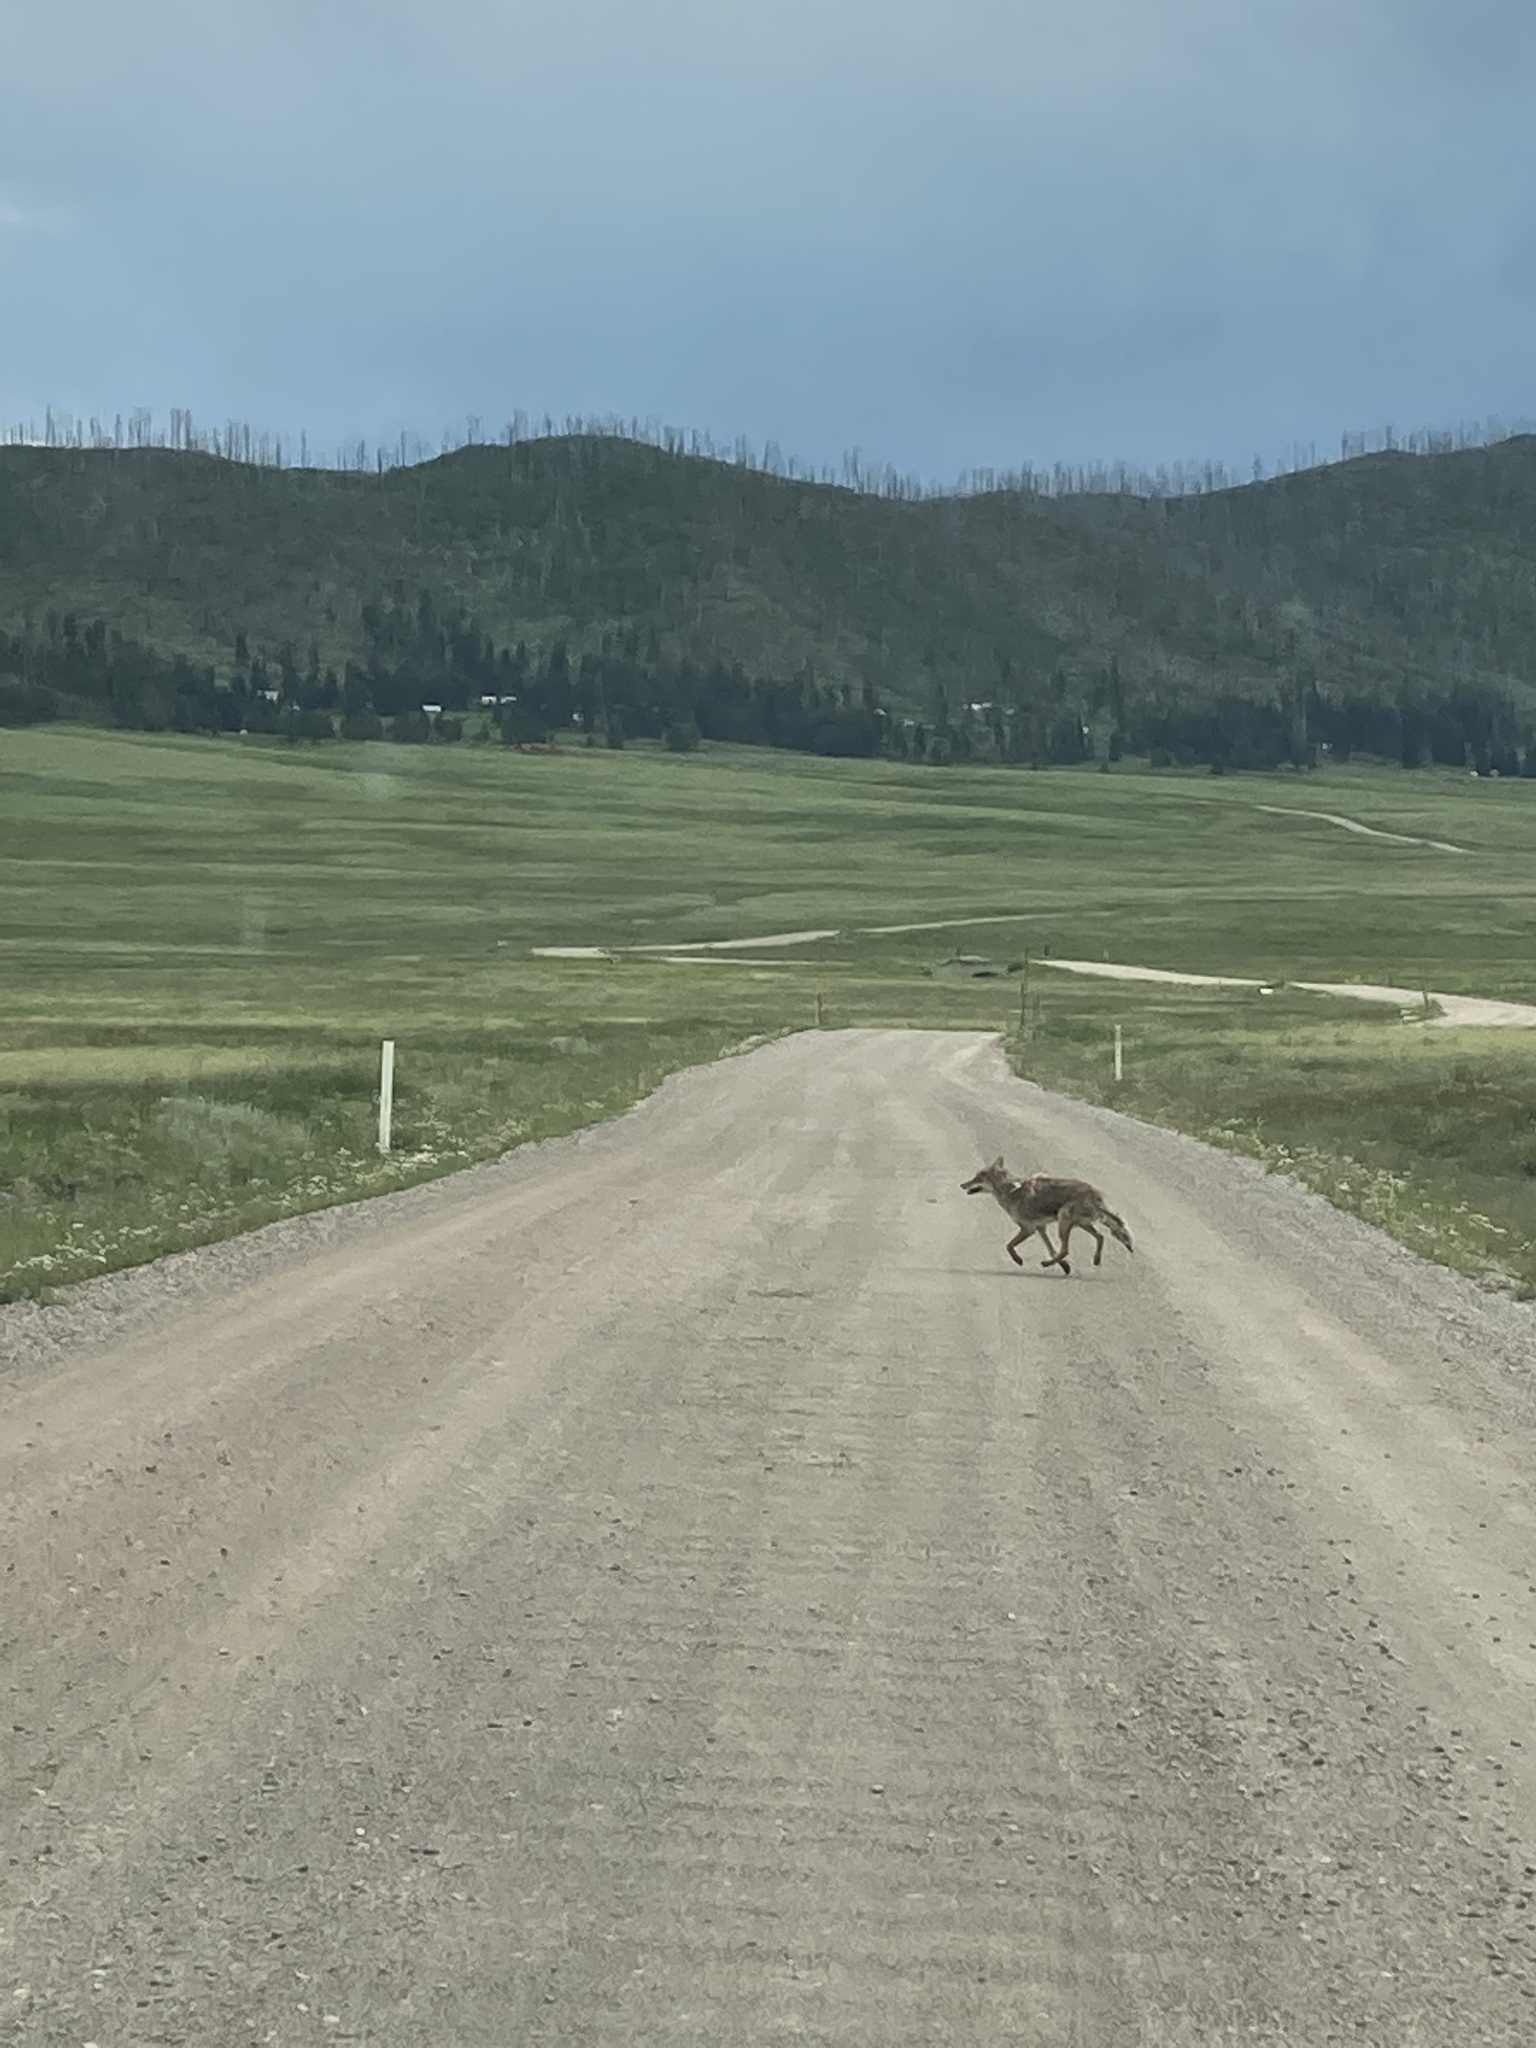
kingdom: Animalia
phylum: Chordata
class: Mammalia
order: Carnivora
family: Canidae
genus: Canis
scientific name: Canis latrans
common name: Coyote
